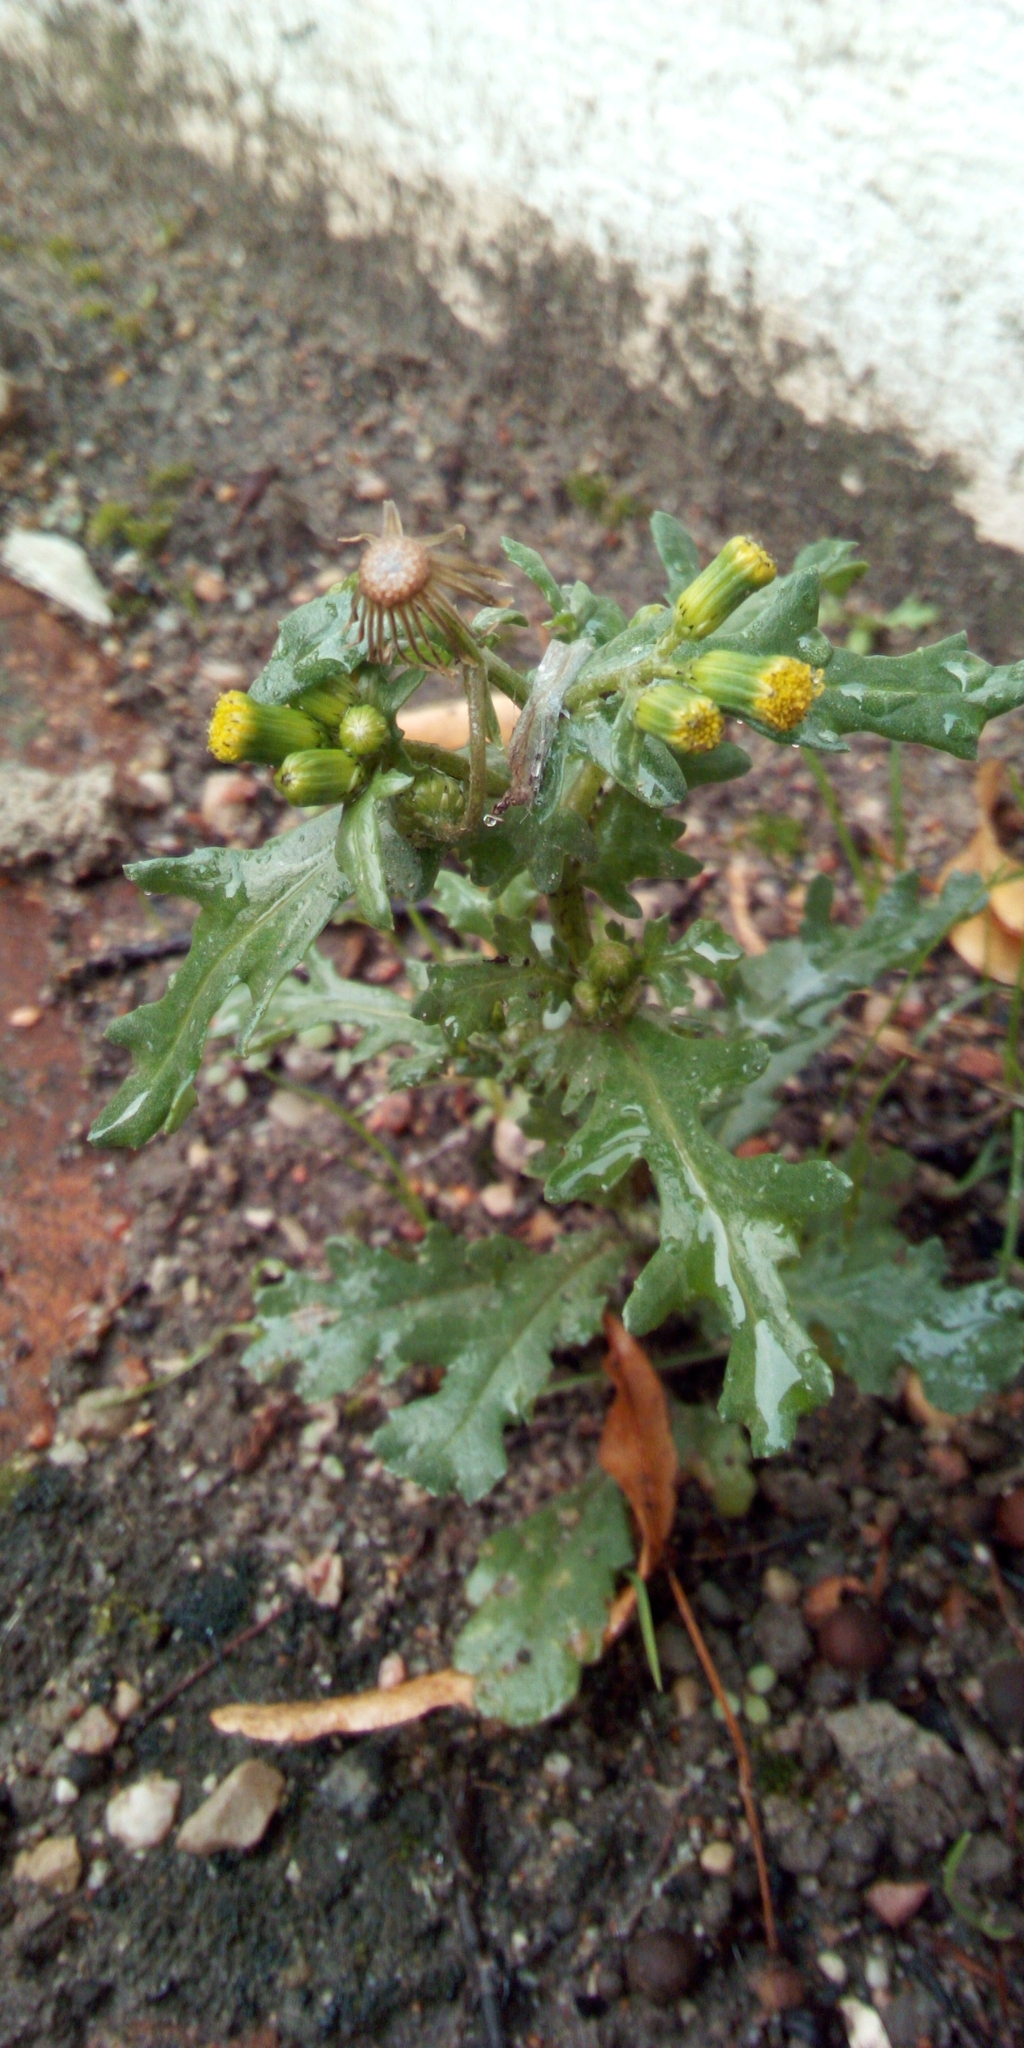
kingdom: Plantae
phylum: Tracheophyta
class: Magnoliopsida
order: Asterales
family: Asteraceae
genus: Senecio
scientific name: Senecio vulgaris
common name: Old-man-in-the-spring
